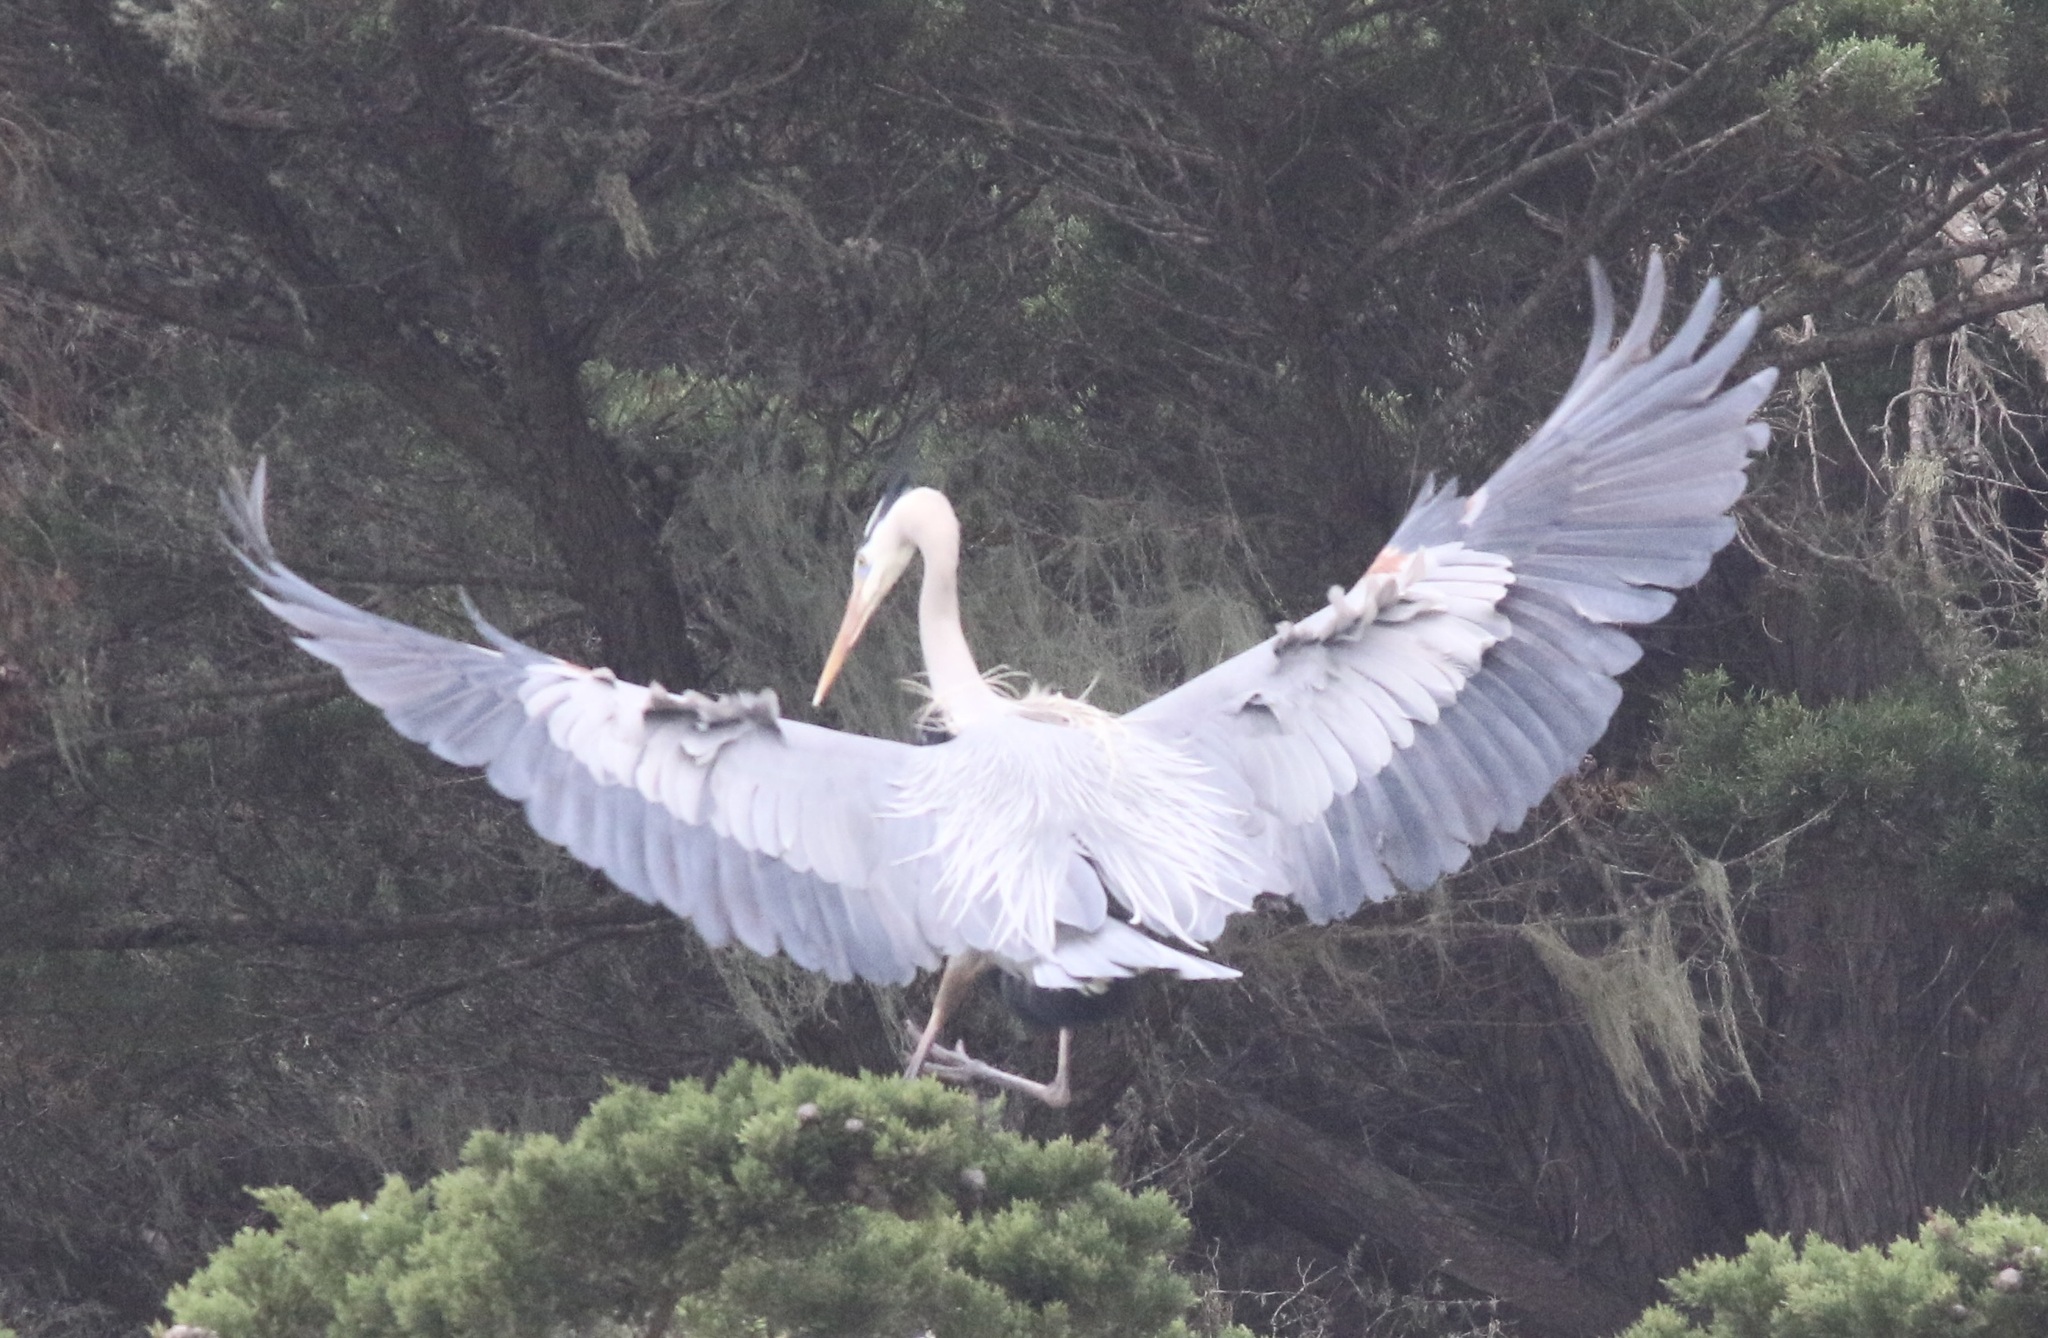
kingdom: Animalia
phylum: Chordata
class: Aves
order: Pelecaniformes
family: Ardeidae
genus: Ardea
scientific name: Ardea herodias
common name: Great blue heron
